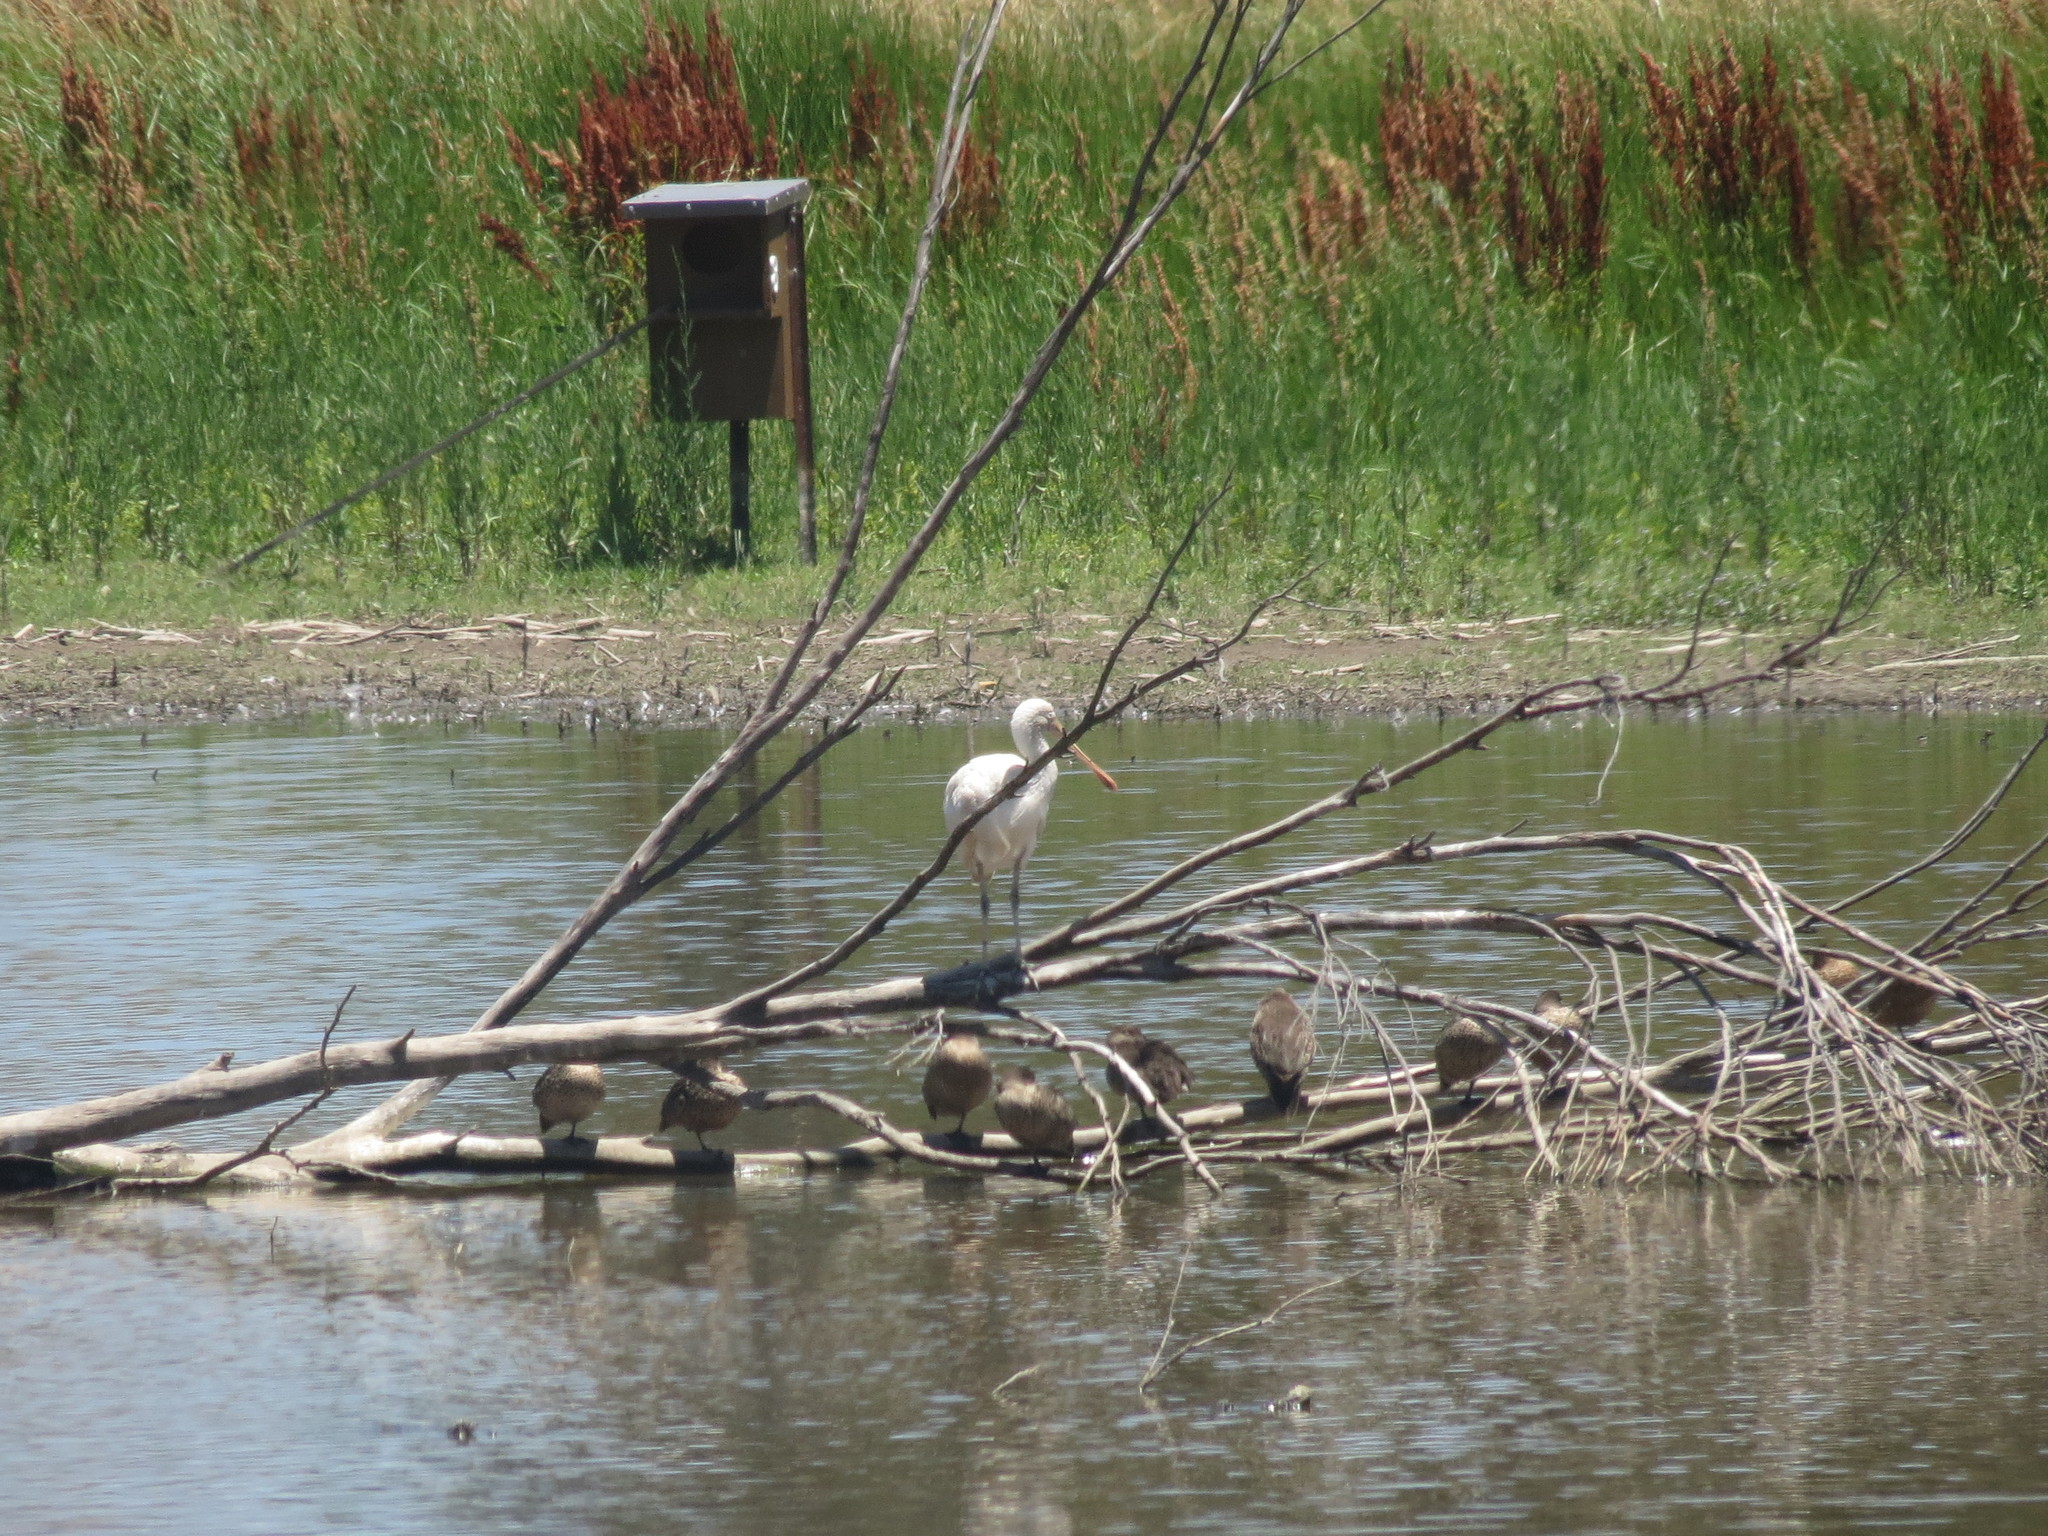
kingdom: Animalia
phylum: Chordata
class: Aves
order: Pelecaniformes
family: Threskiornithidae
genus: Platalea
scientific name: Platalea flavipes
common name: Yellow-billed spoonbill
